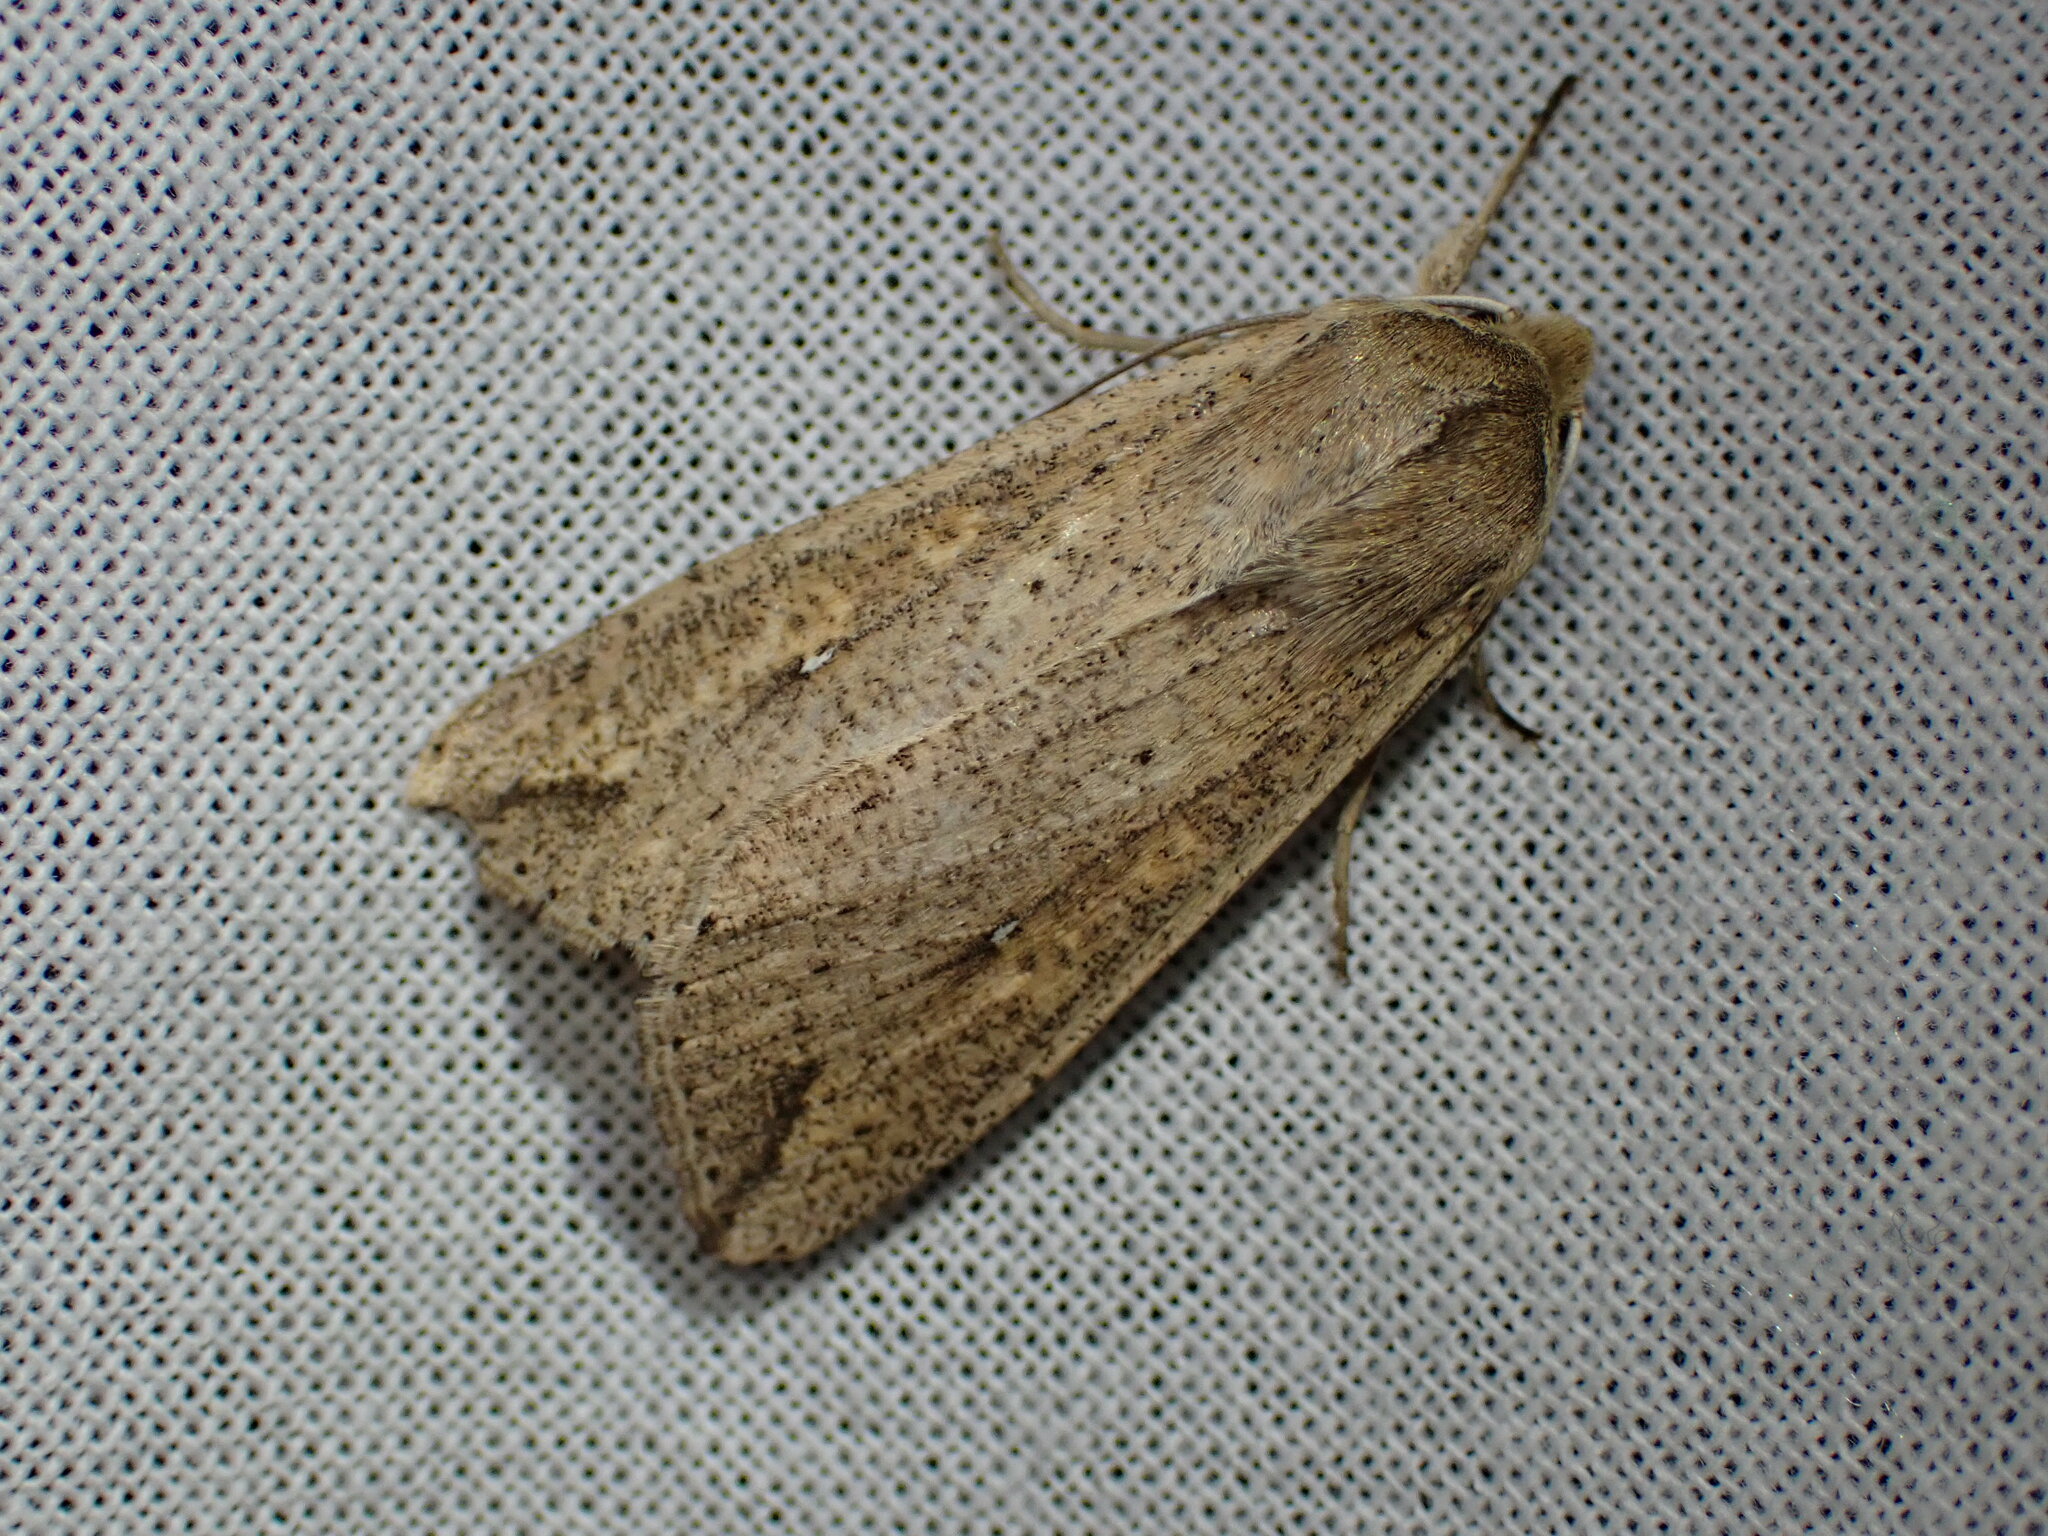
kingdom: Animalia
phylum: Arthropoda
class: Insecta
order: Lepidoptera
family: Noctuidae
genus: Mythimna
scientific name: Mythimna unipuncta
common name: White-speck
